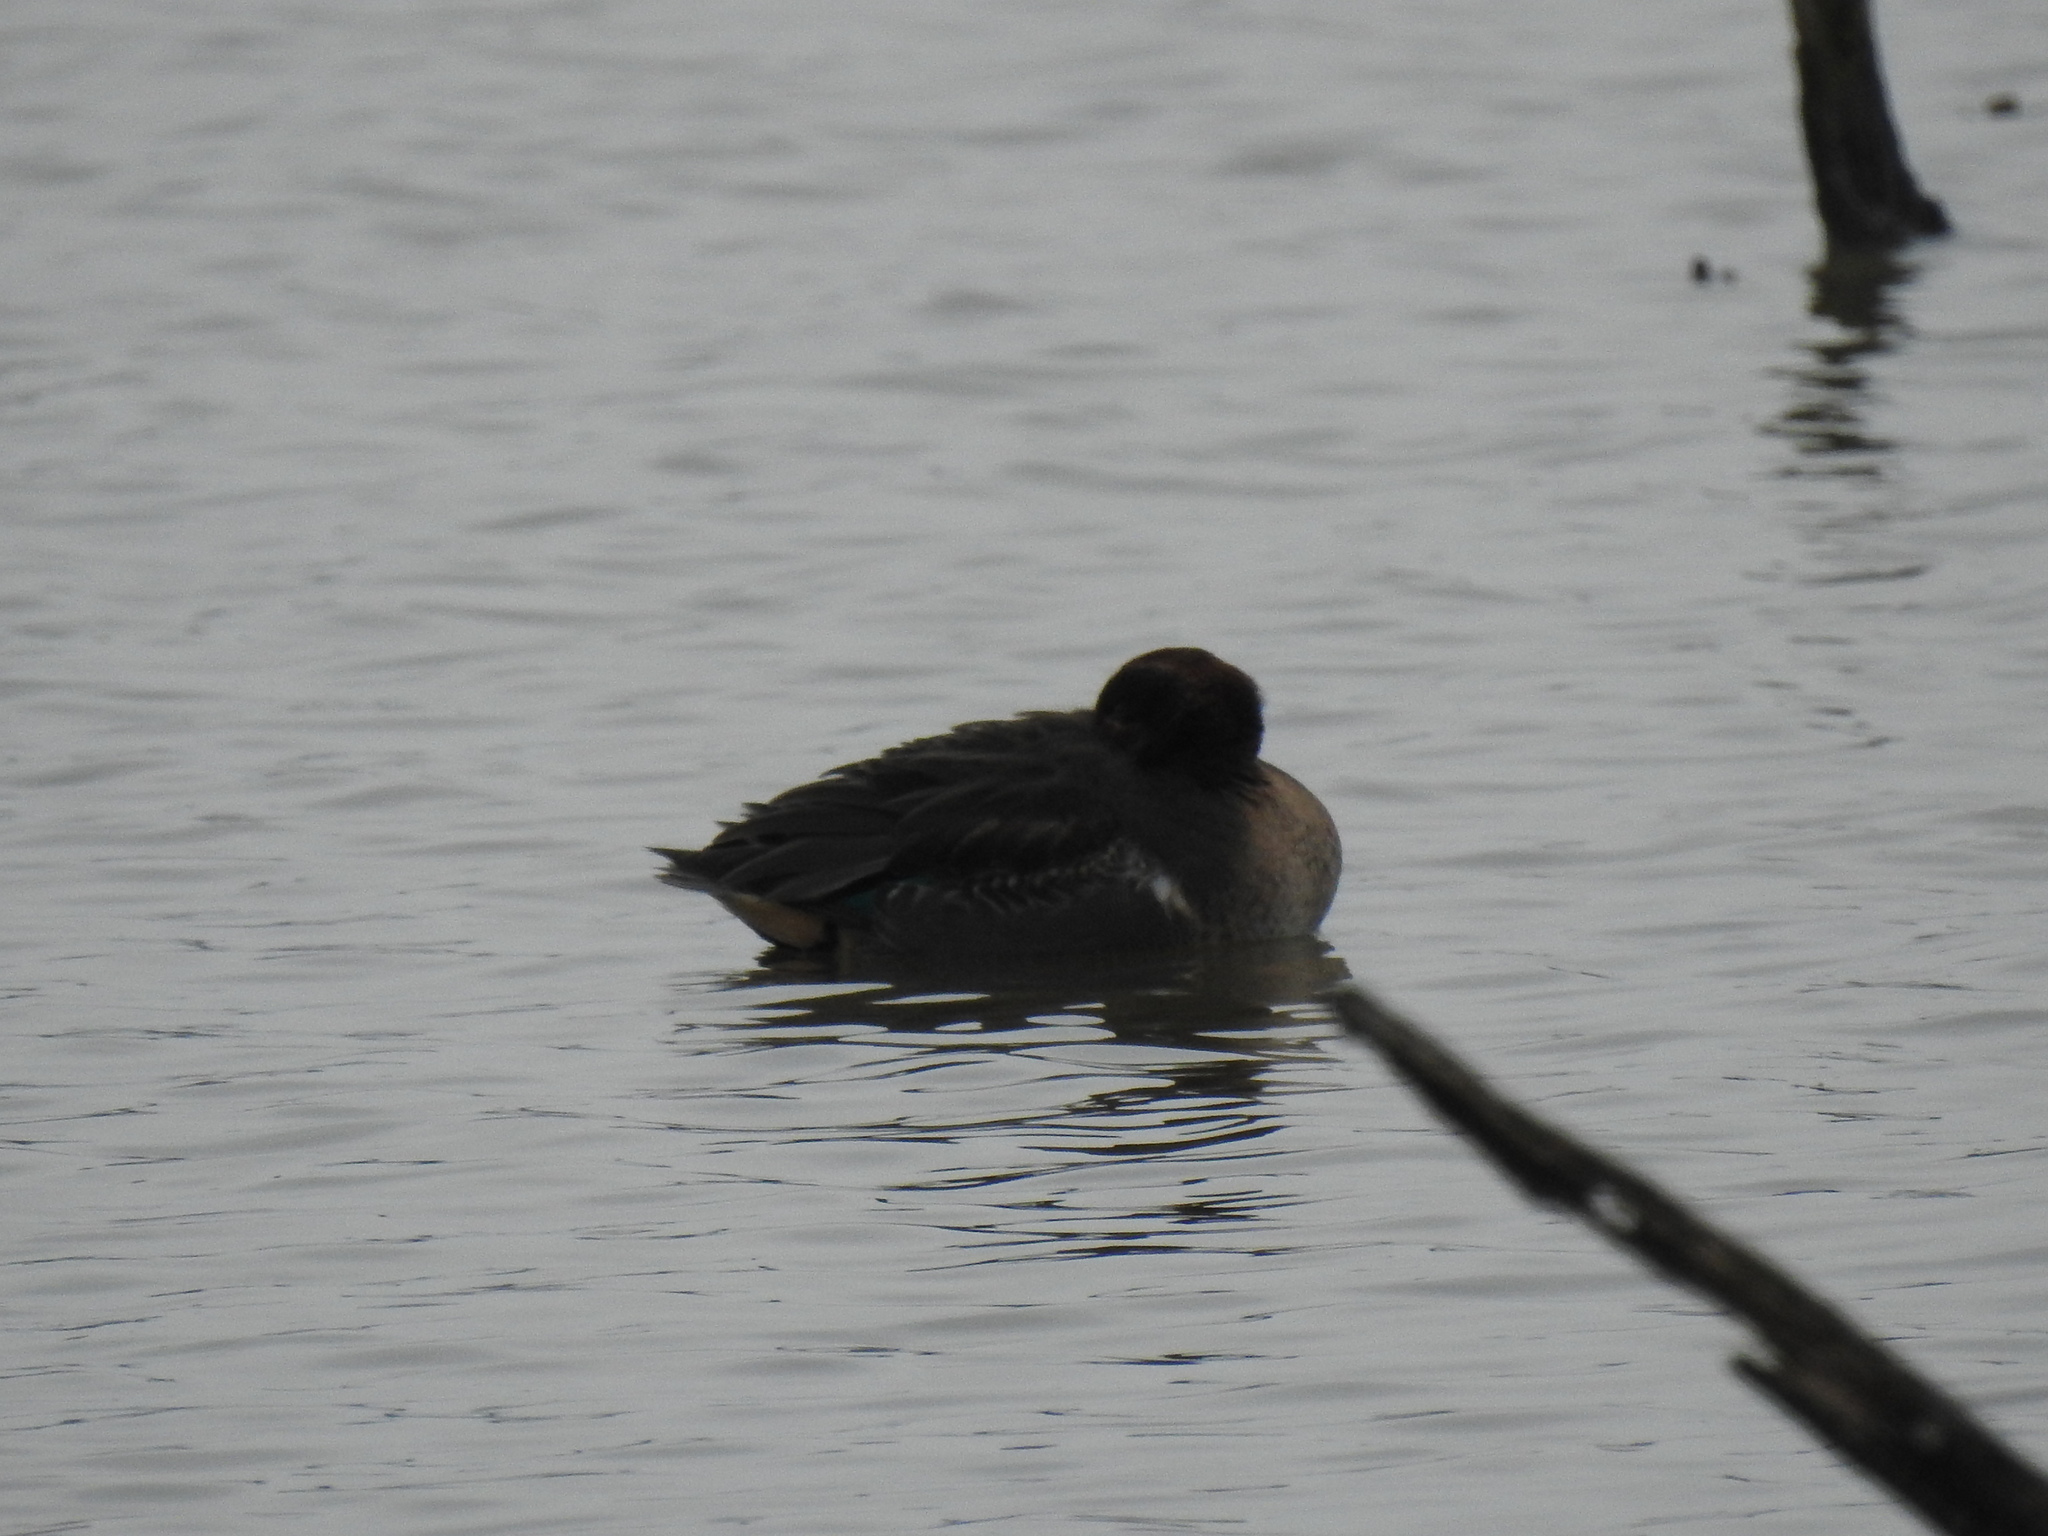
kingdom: Animalia
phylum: Chordata
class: Aves
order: Anseriformes
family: Anatidae
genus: Anas
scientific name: Anas crecca
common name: Eurasian teal
